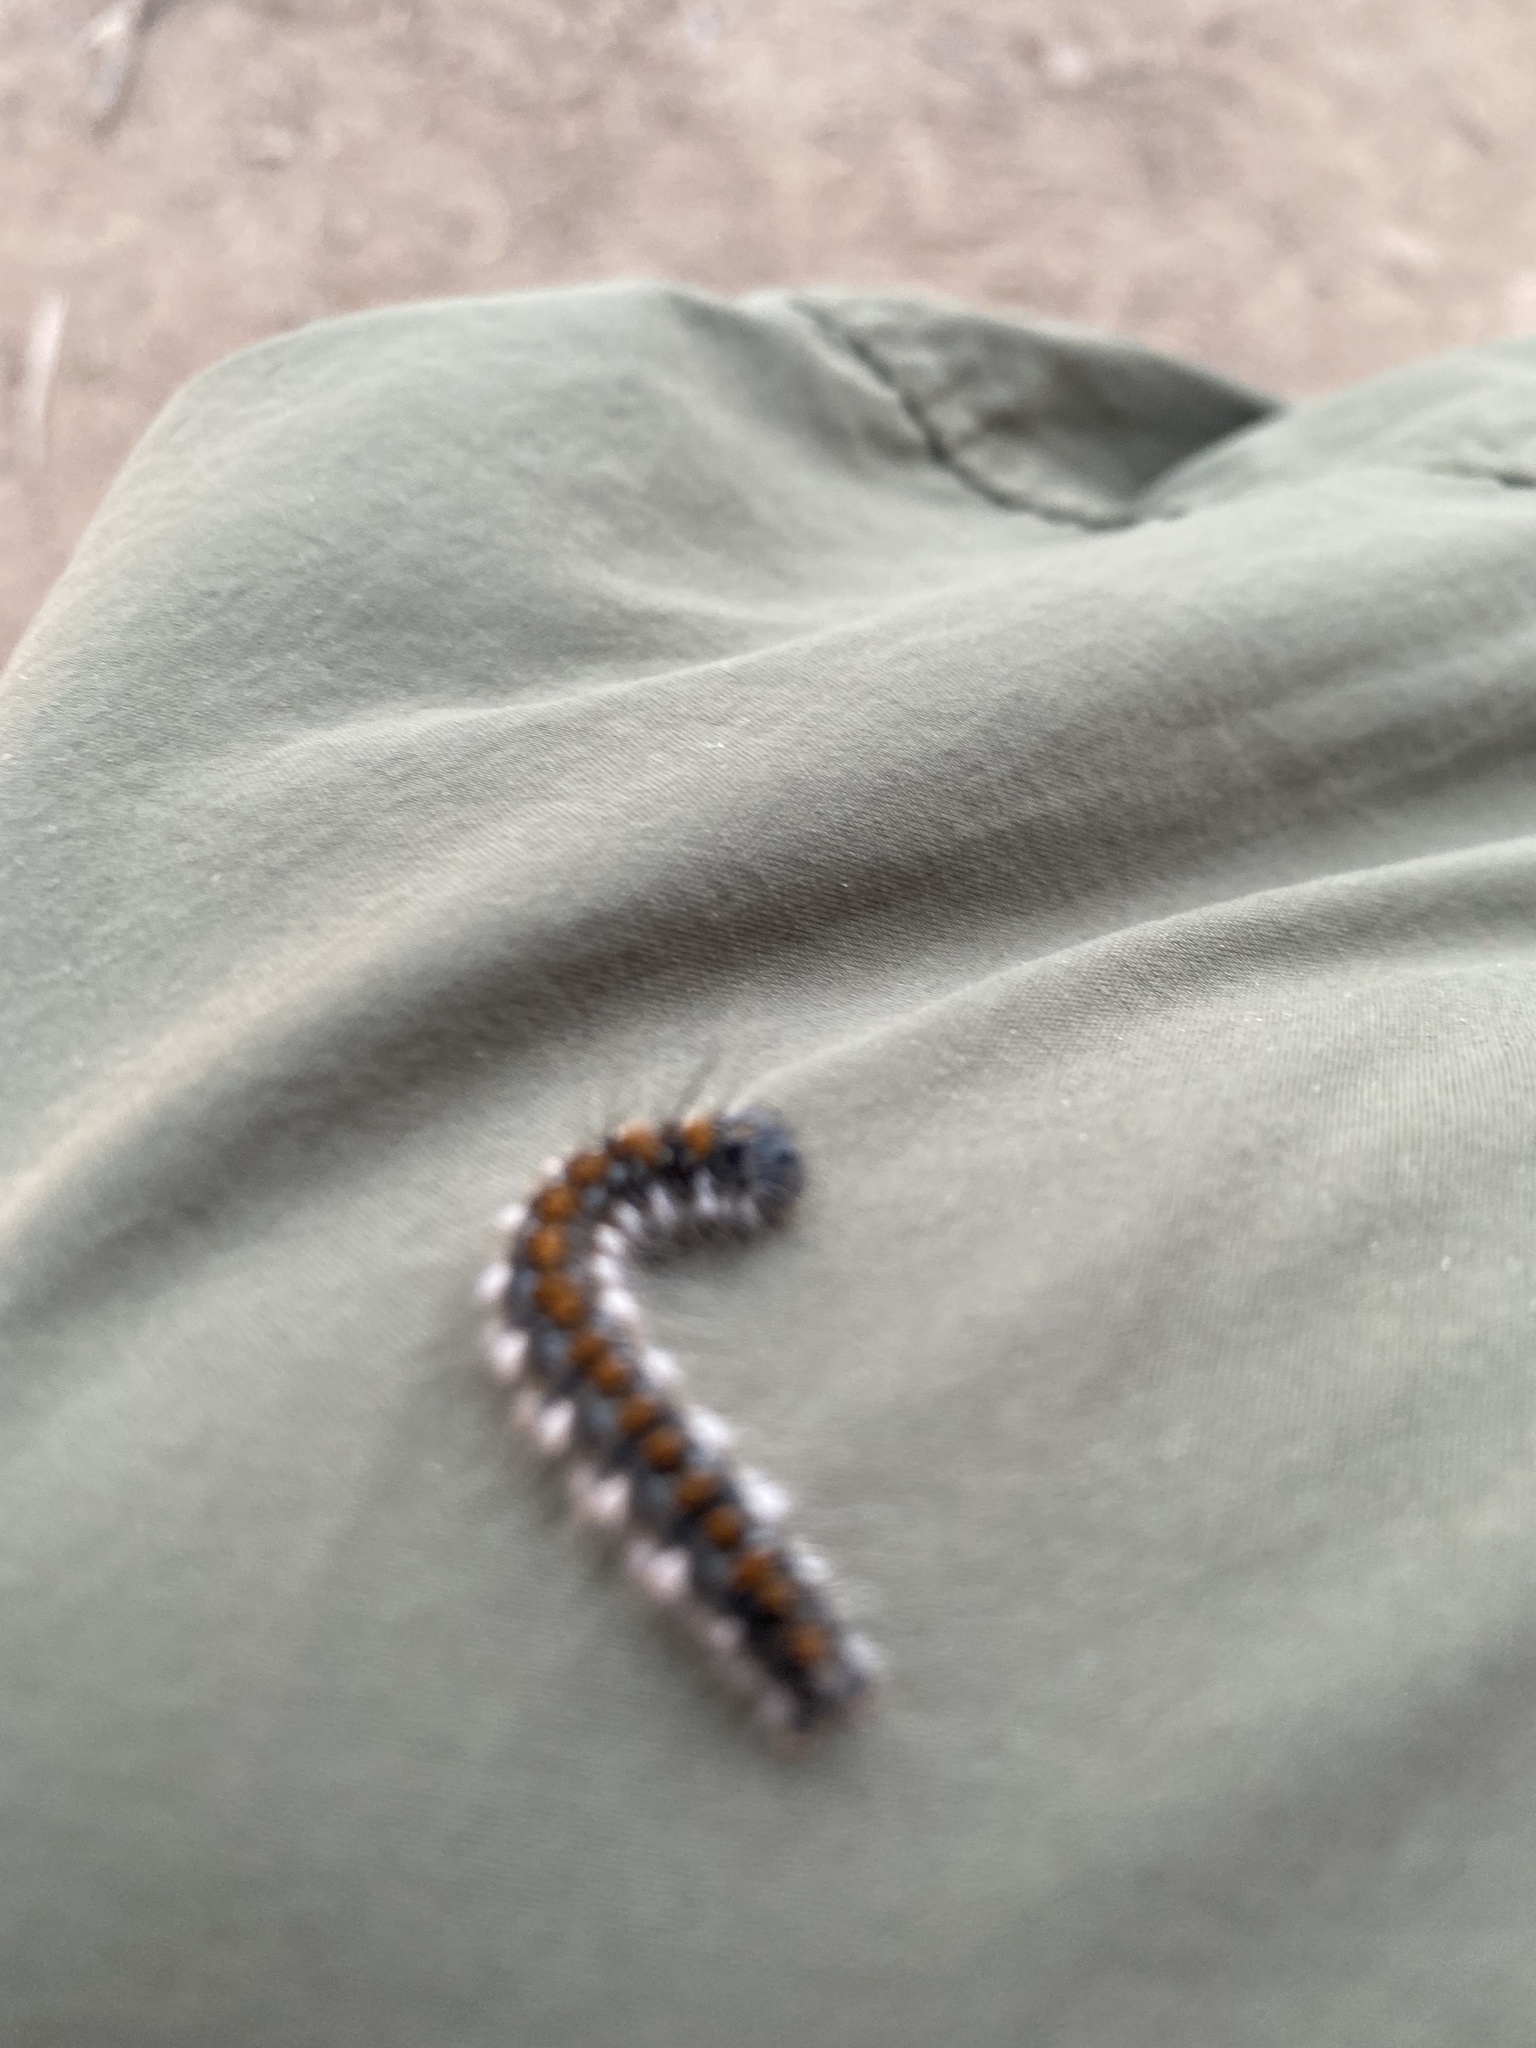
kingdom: Animalia
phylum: Arthropoda
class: Insecta
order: Lepidoptera
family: Lasiocampidae
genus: Malacosoma
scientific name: Malacosoma constricta
